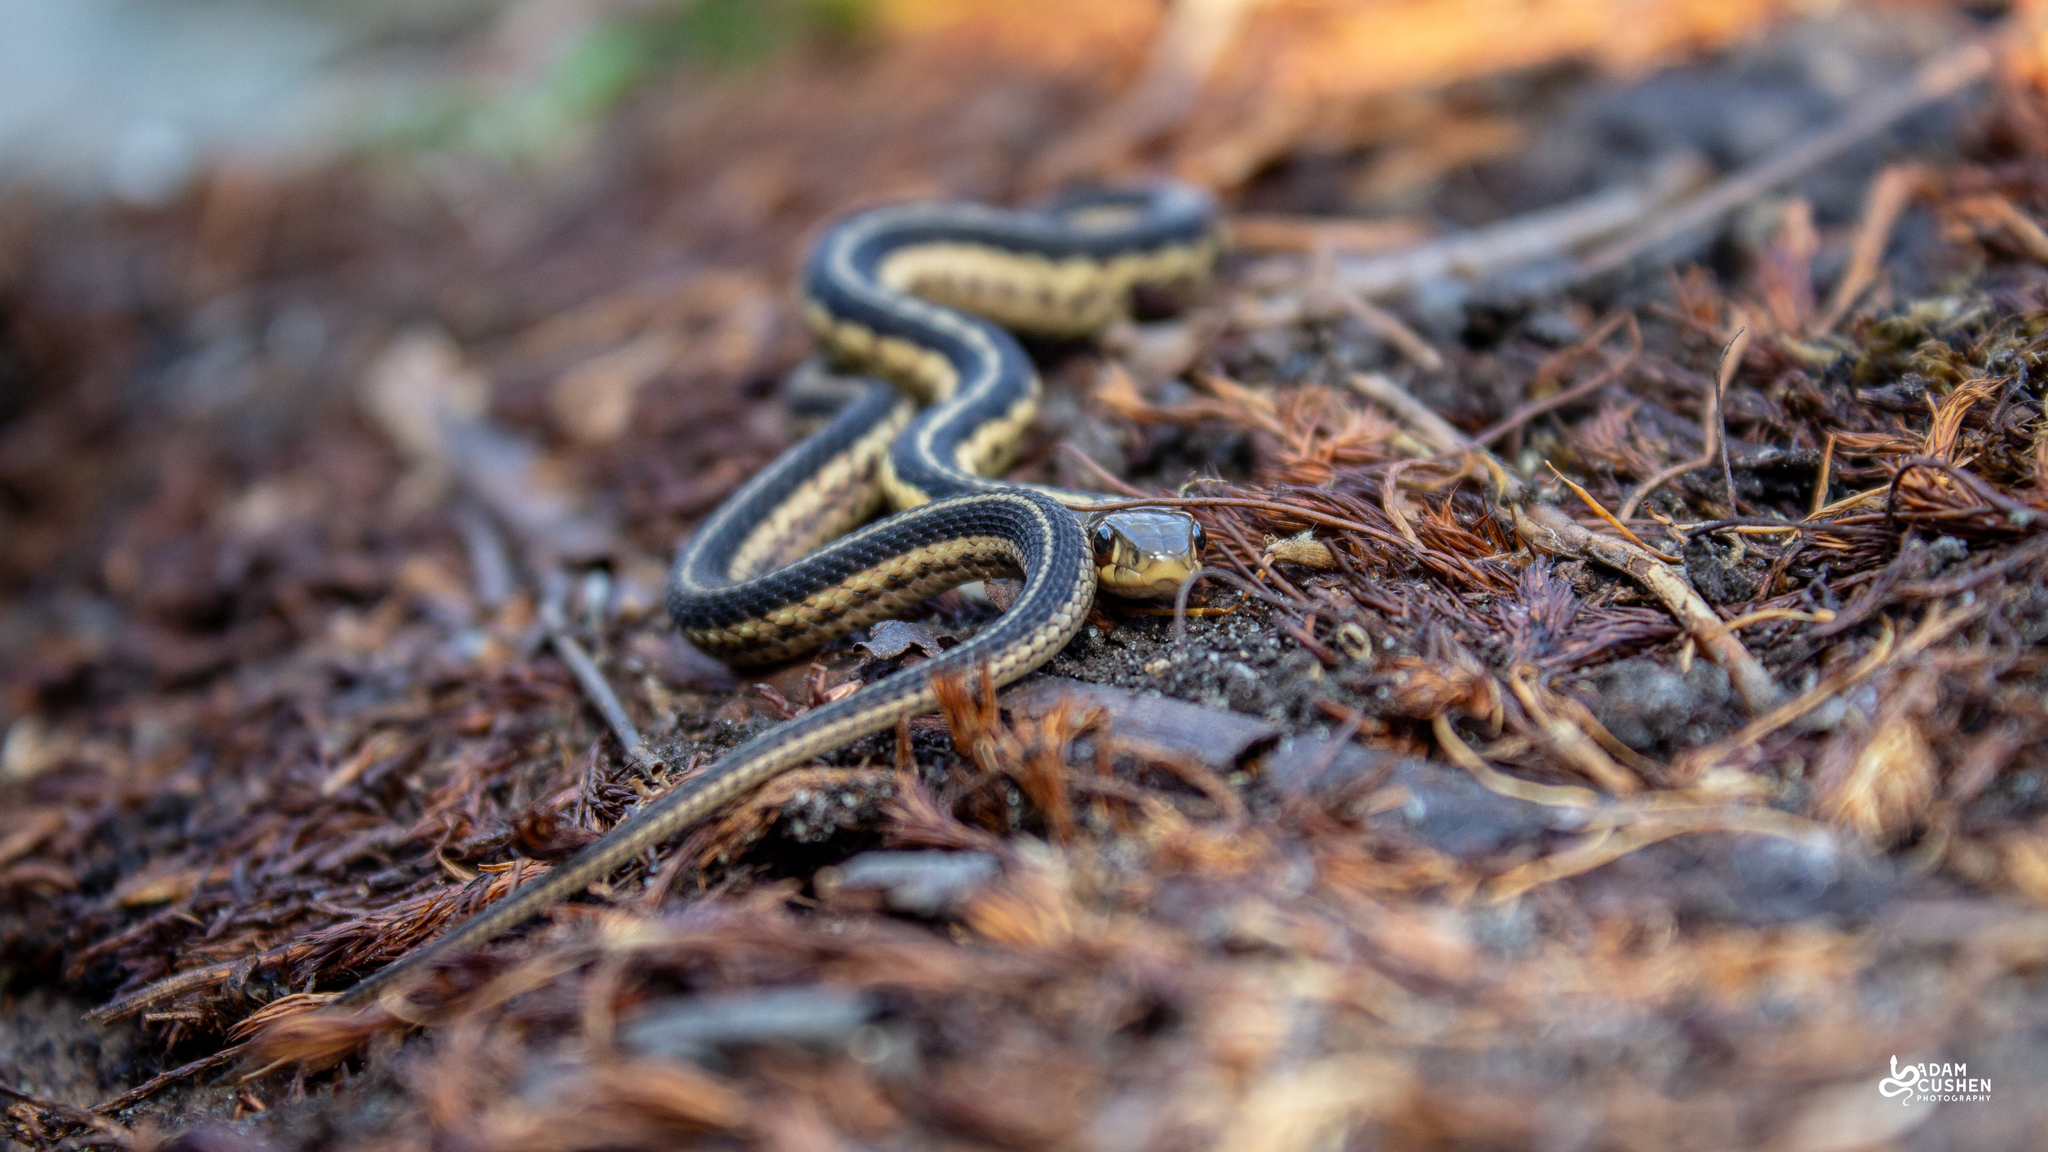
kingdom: Animalia
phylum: Chordata
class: Squamata
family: Colubridae
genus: Thamnophis
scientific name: Thamnophis sirtalis
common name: Common garter snake
